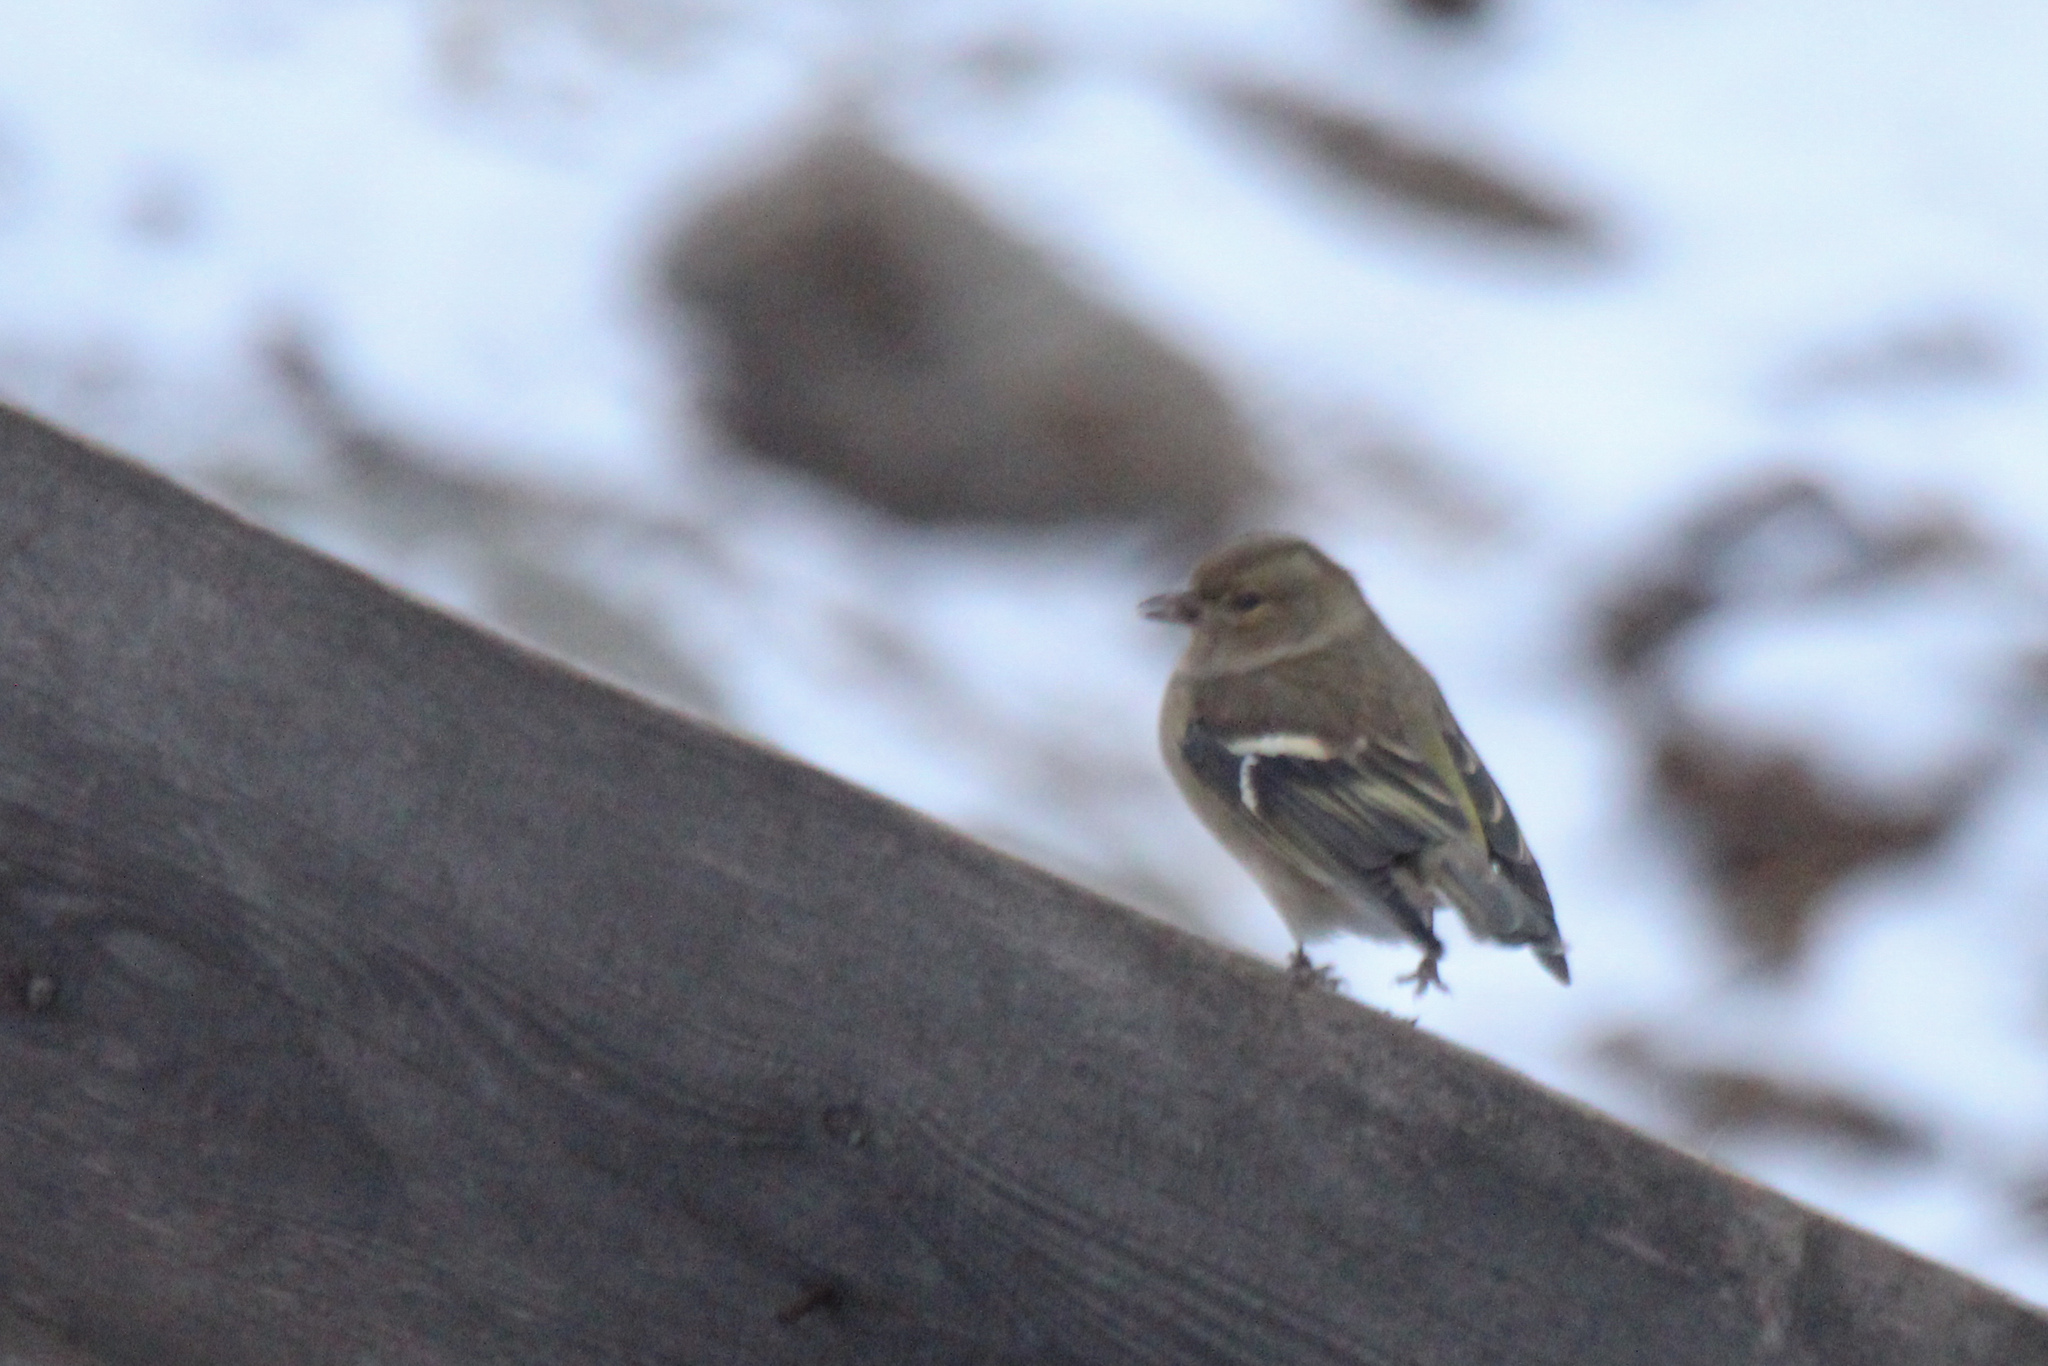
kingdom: Animalia
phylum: Chordata
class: Aves
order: Passeriformes
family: Fringillidae
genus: Fringilla
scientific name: Fringilla coelebs
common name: Common chaffinch
